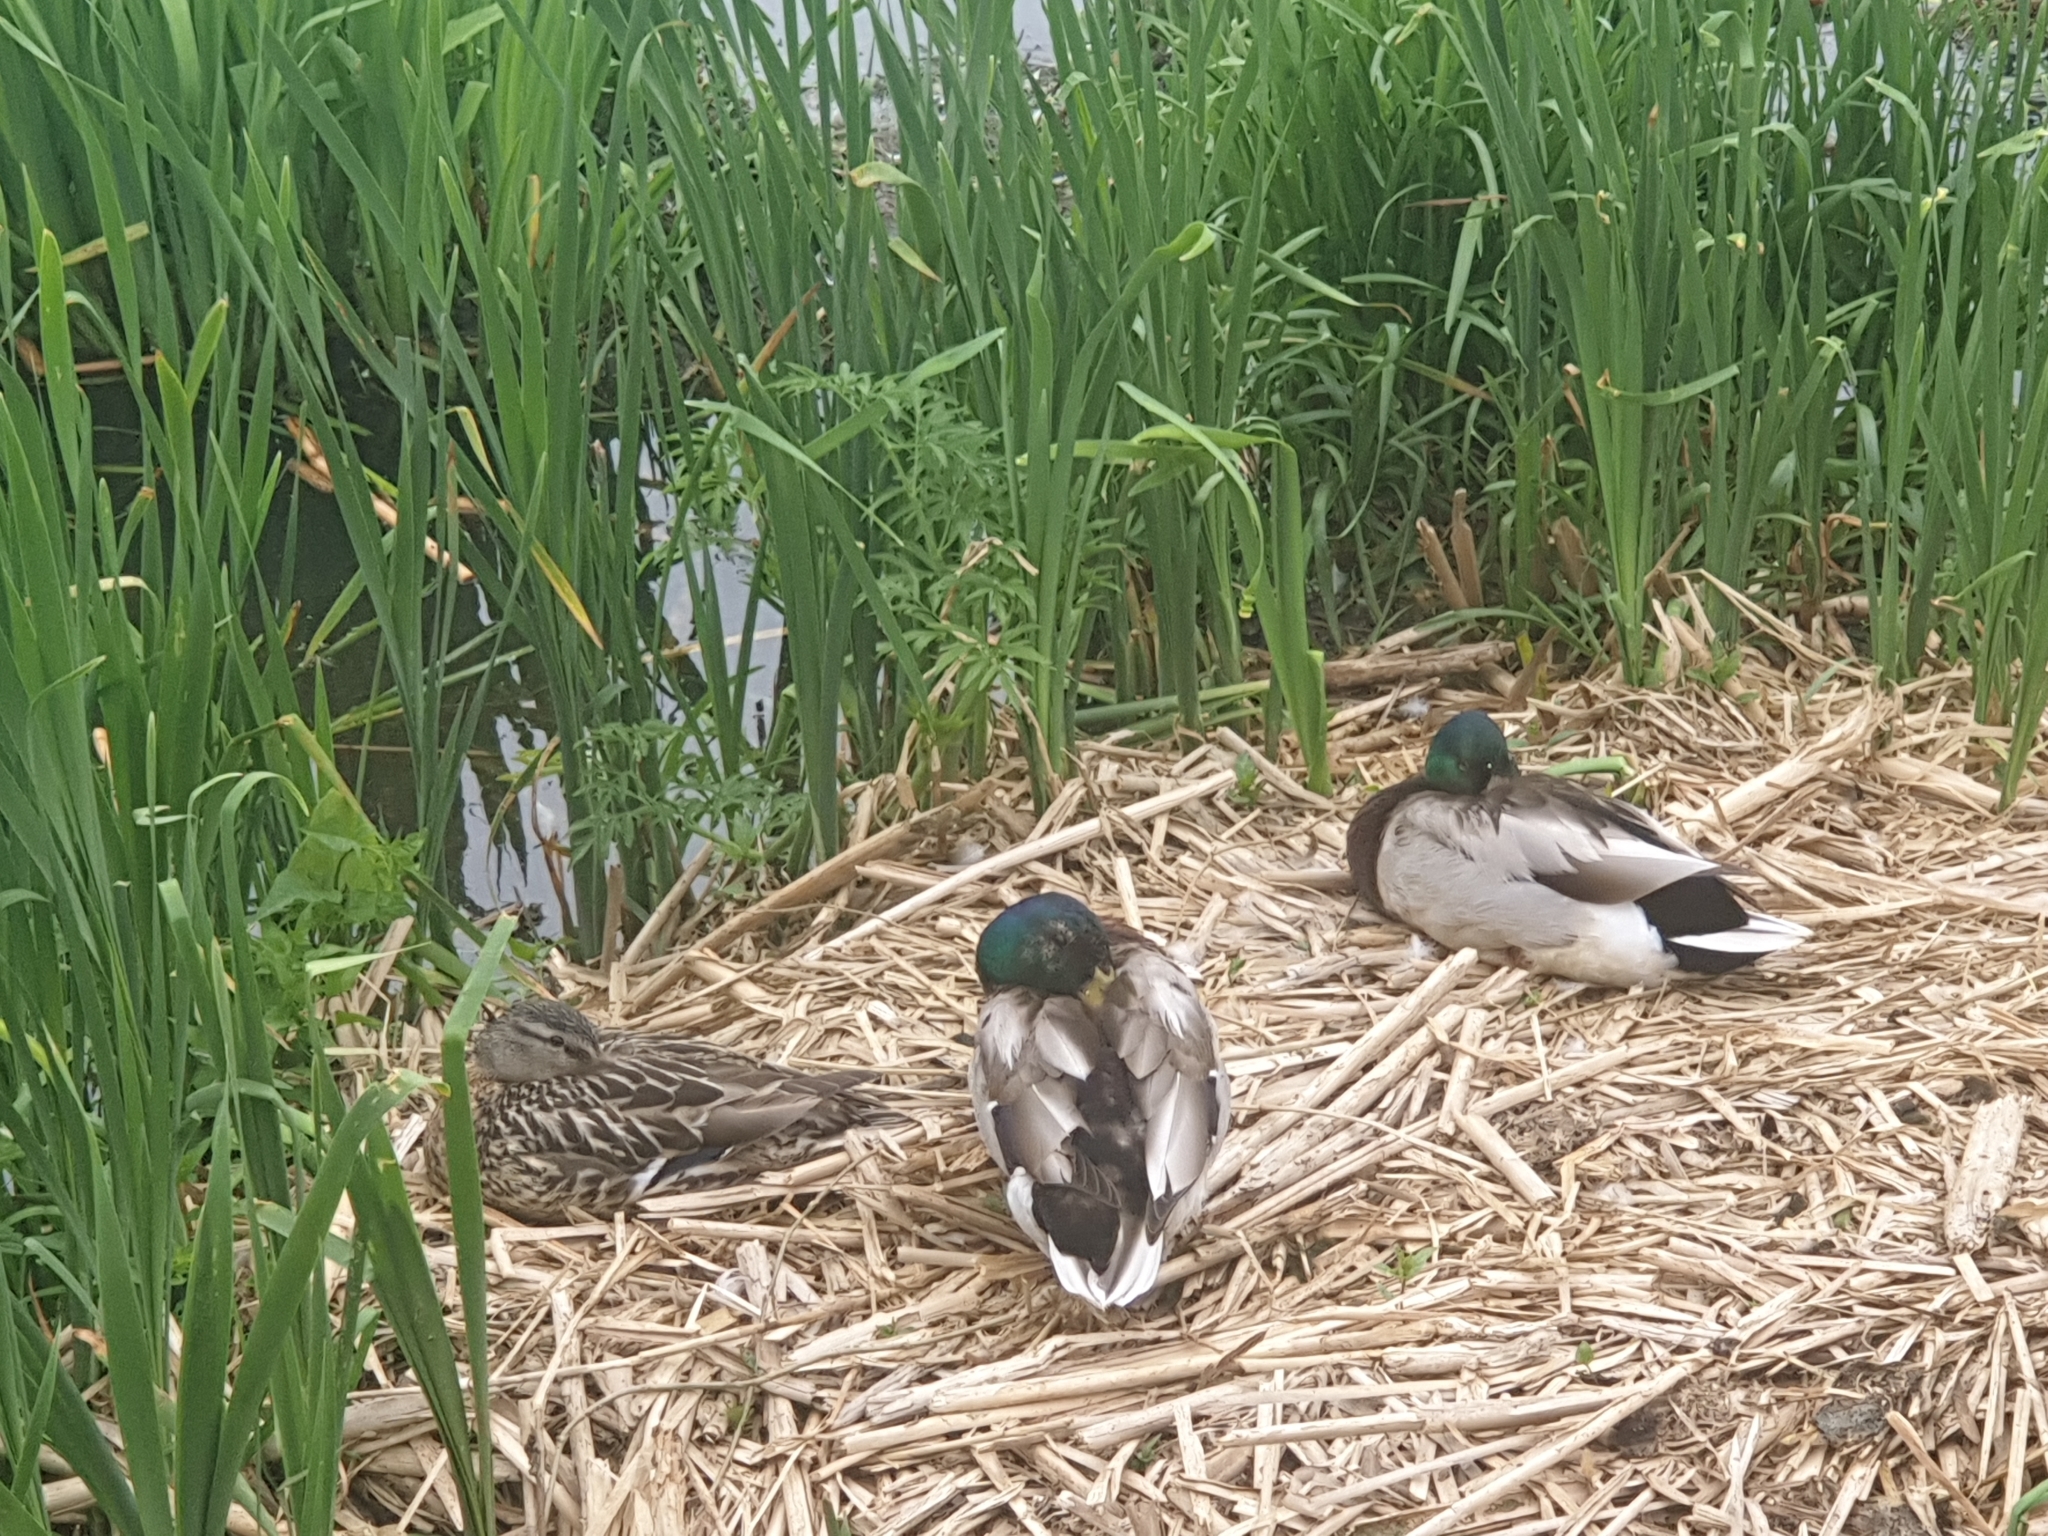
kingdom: Animalia
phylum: Chordata
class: Aves
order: Anseriformes
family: Anatidae
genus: Anas
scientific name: Anas platyrhynchos
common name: Mallard
